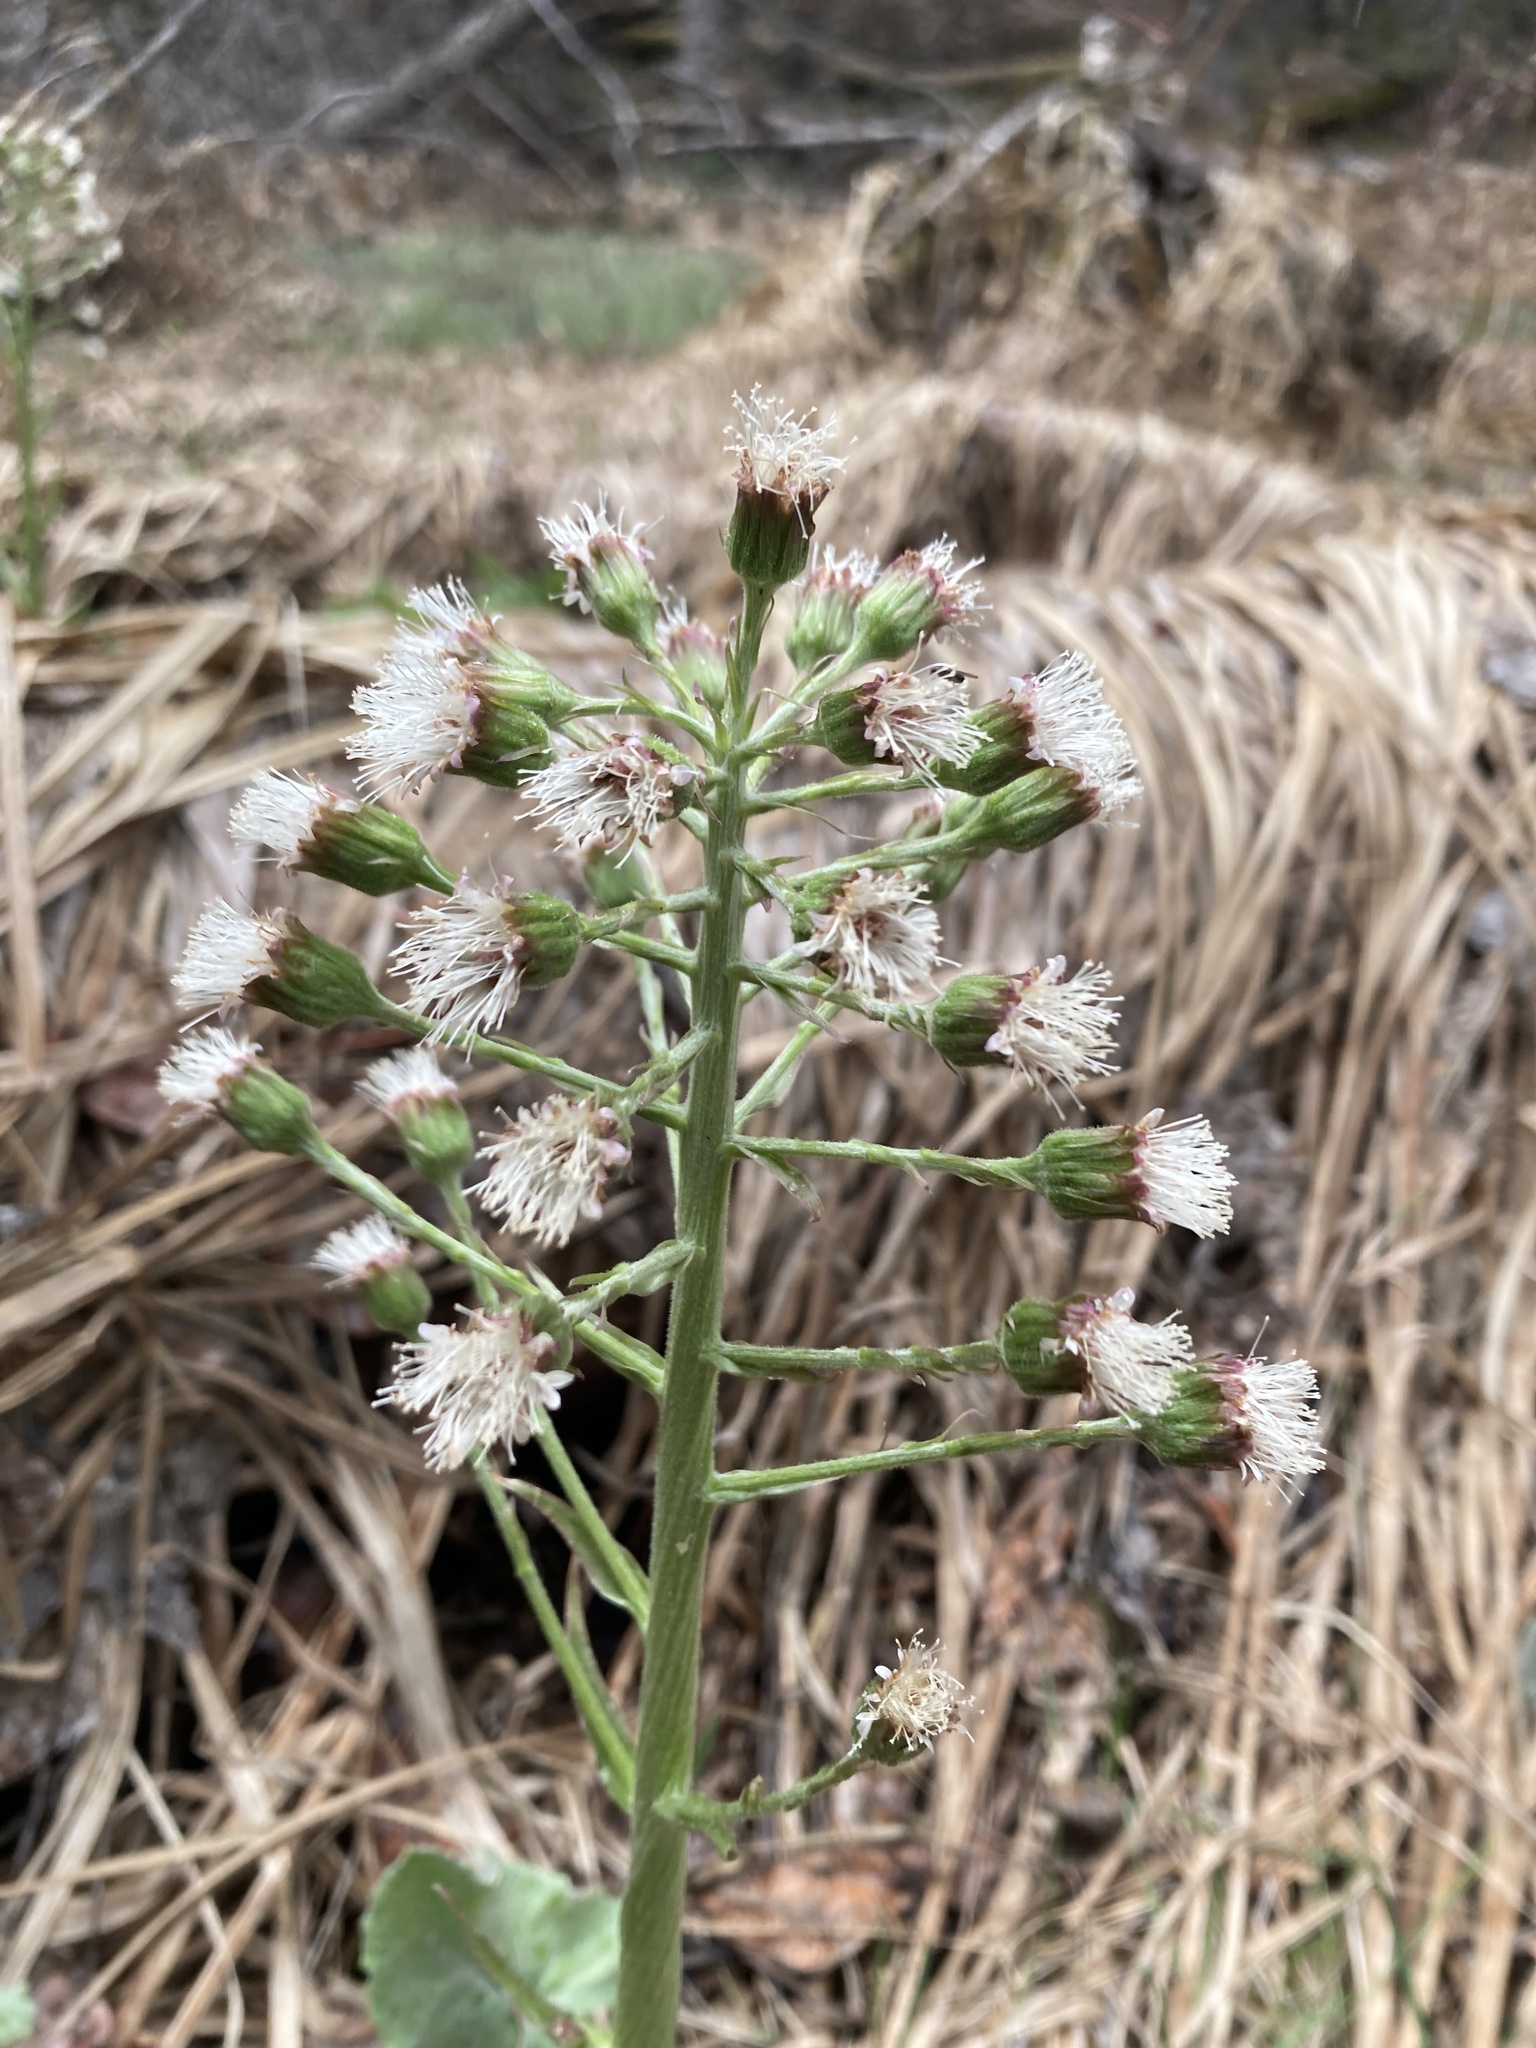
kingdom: Plantae
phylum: Tracheophyta
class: Magnoliopsida
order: Asterales
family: Asteraceae
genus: Petasites
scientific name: Petasites frigidus
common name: Arctic butterbur
